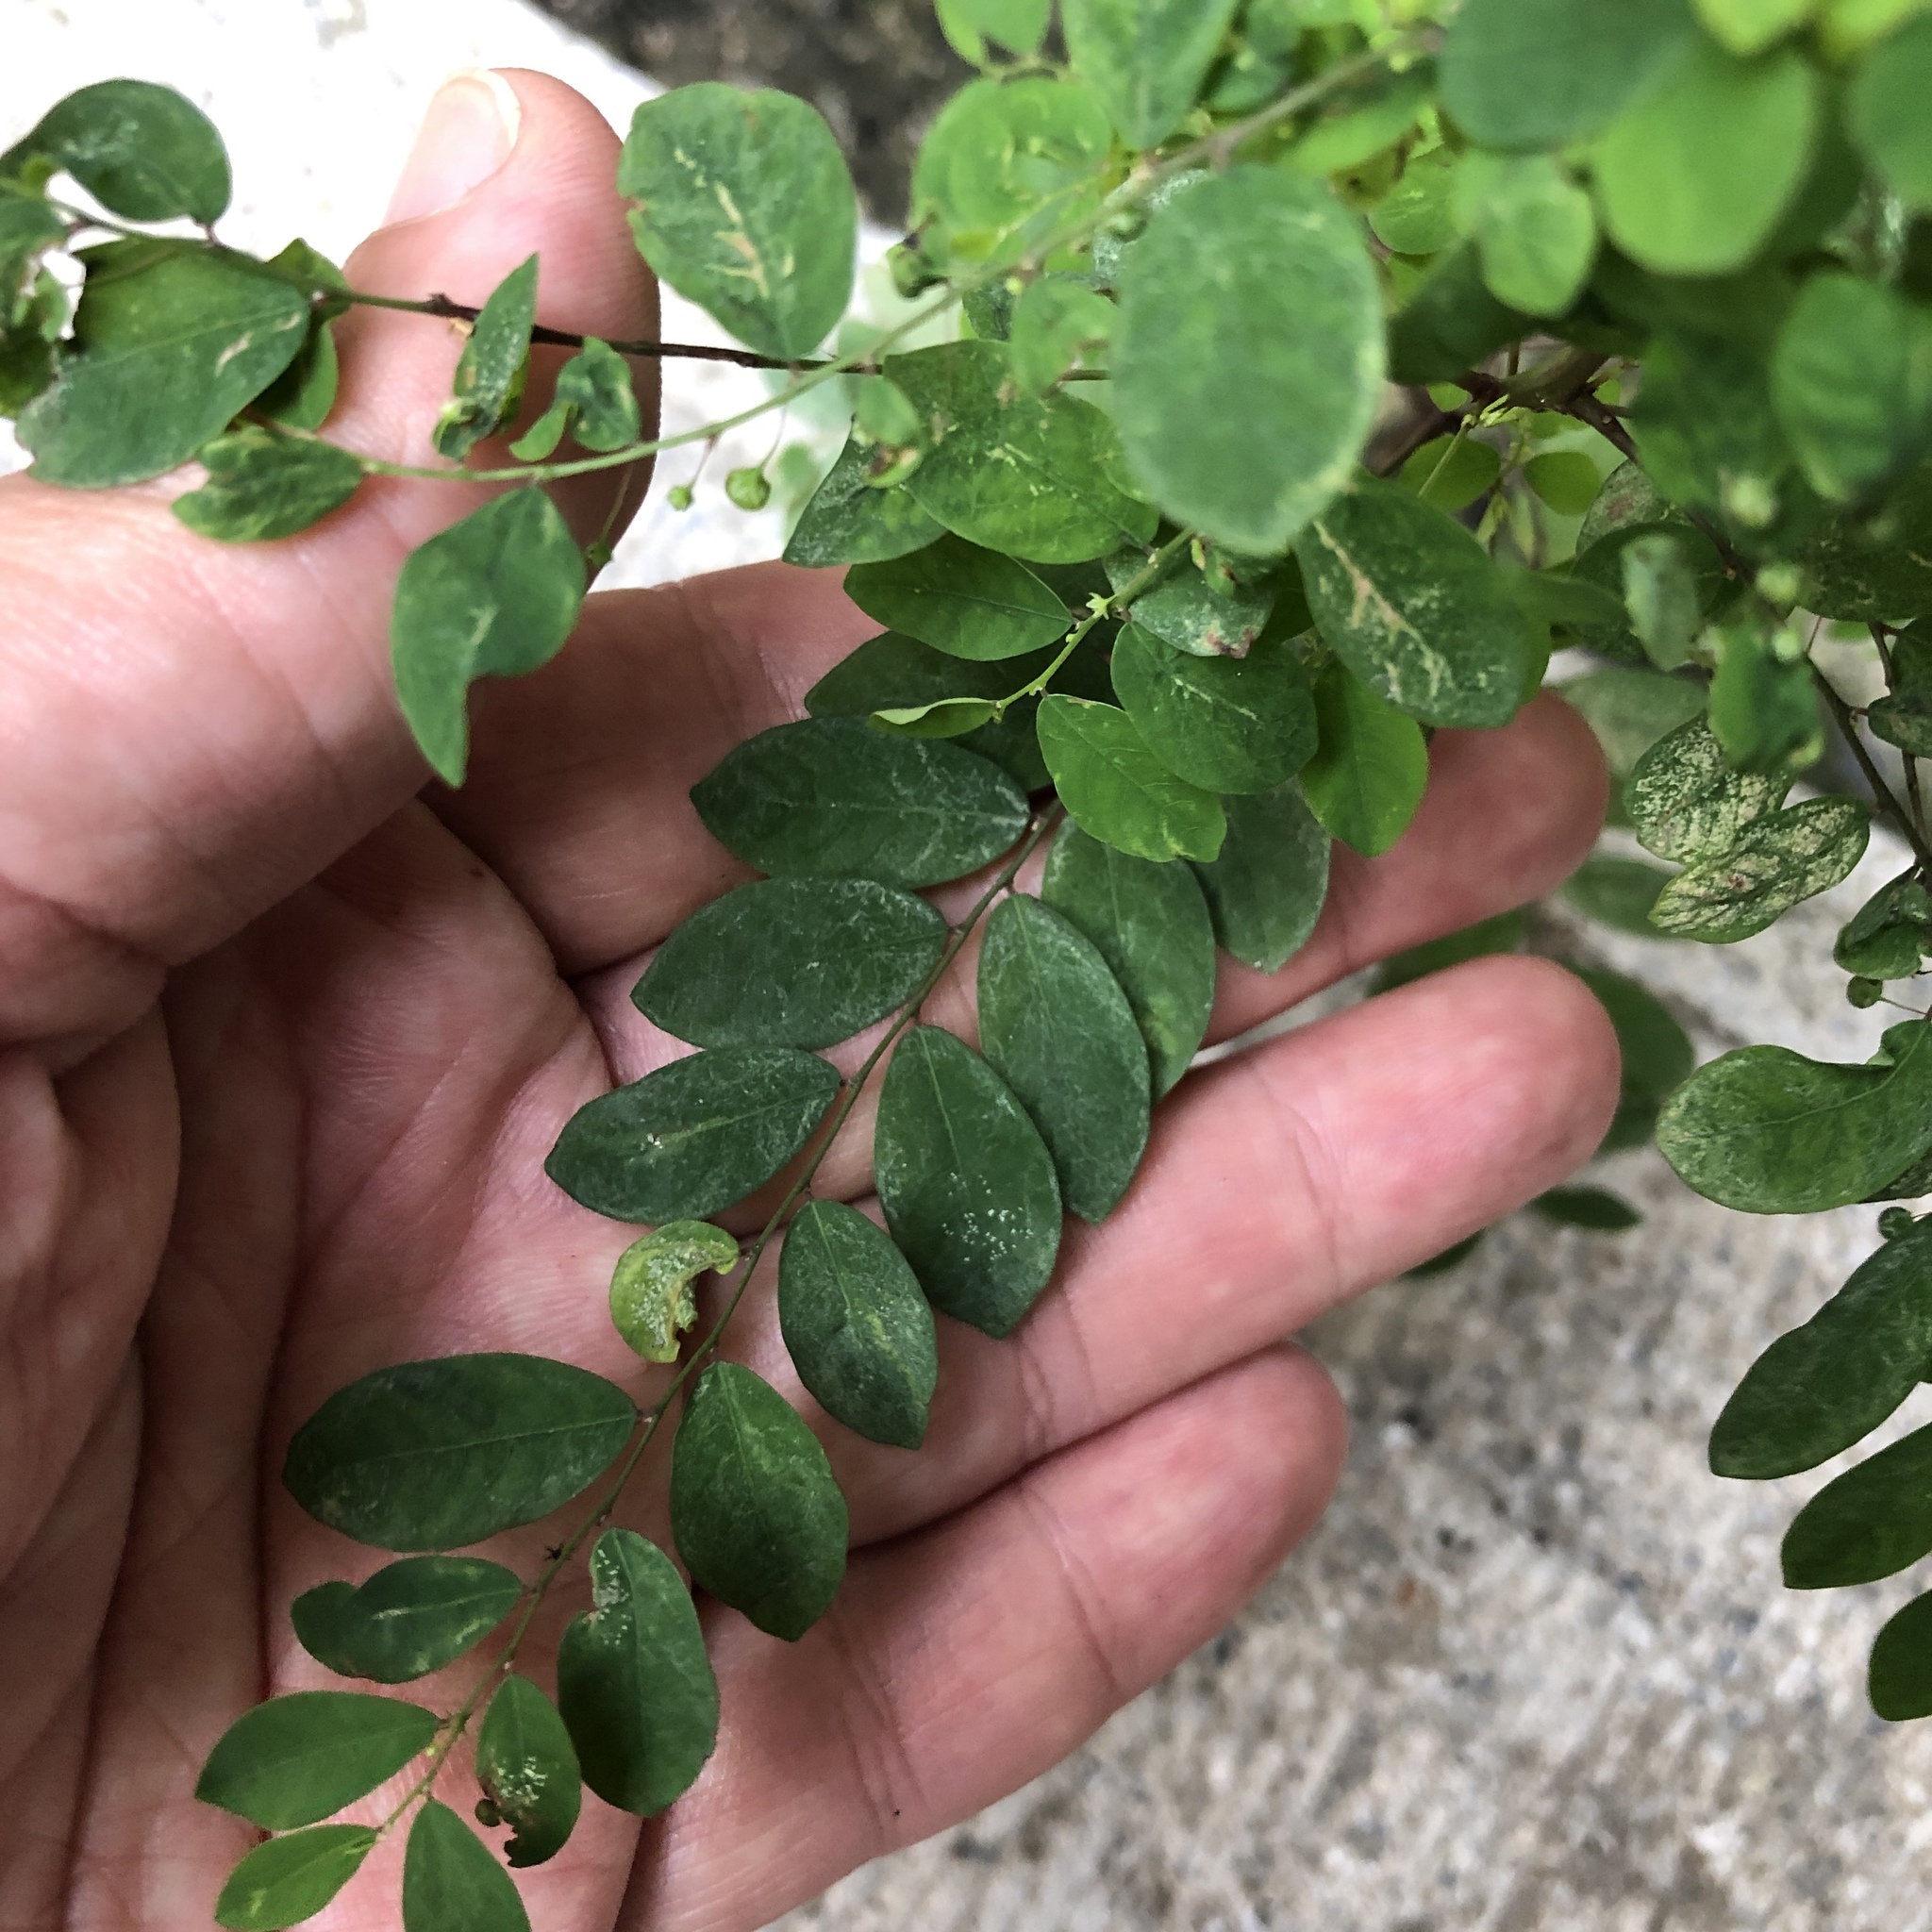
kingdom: Plantae
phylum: Tracheophyta
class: Magnoliopsida
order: Malpighiales
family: Phyllanthaceae
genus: Phyllanthus
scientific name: Phyllanthus tenellus
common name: Mascarene island leaf-flower
